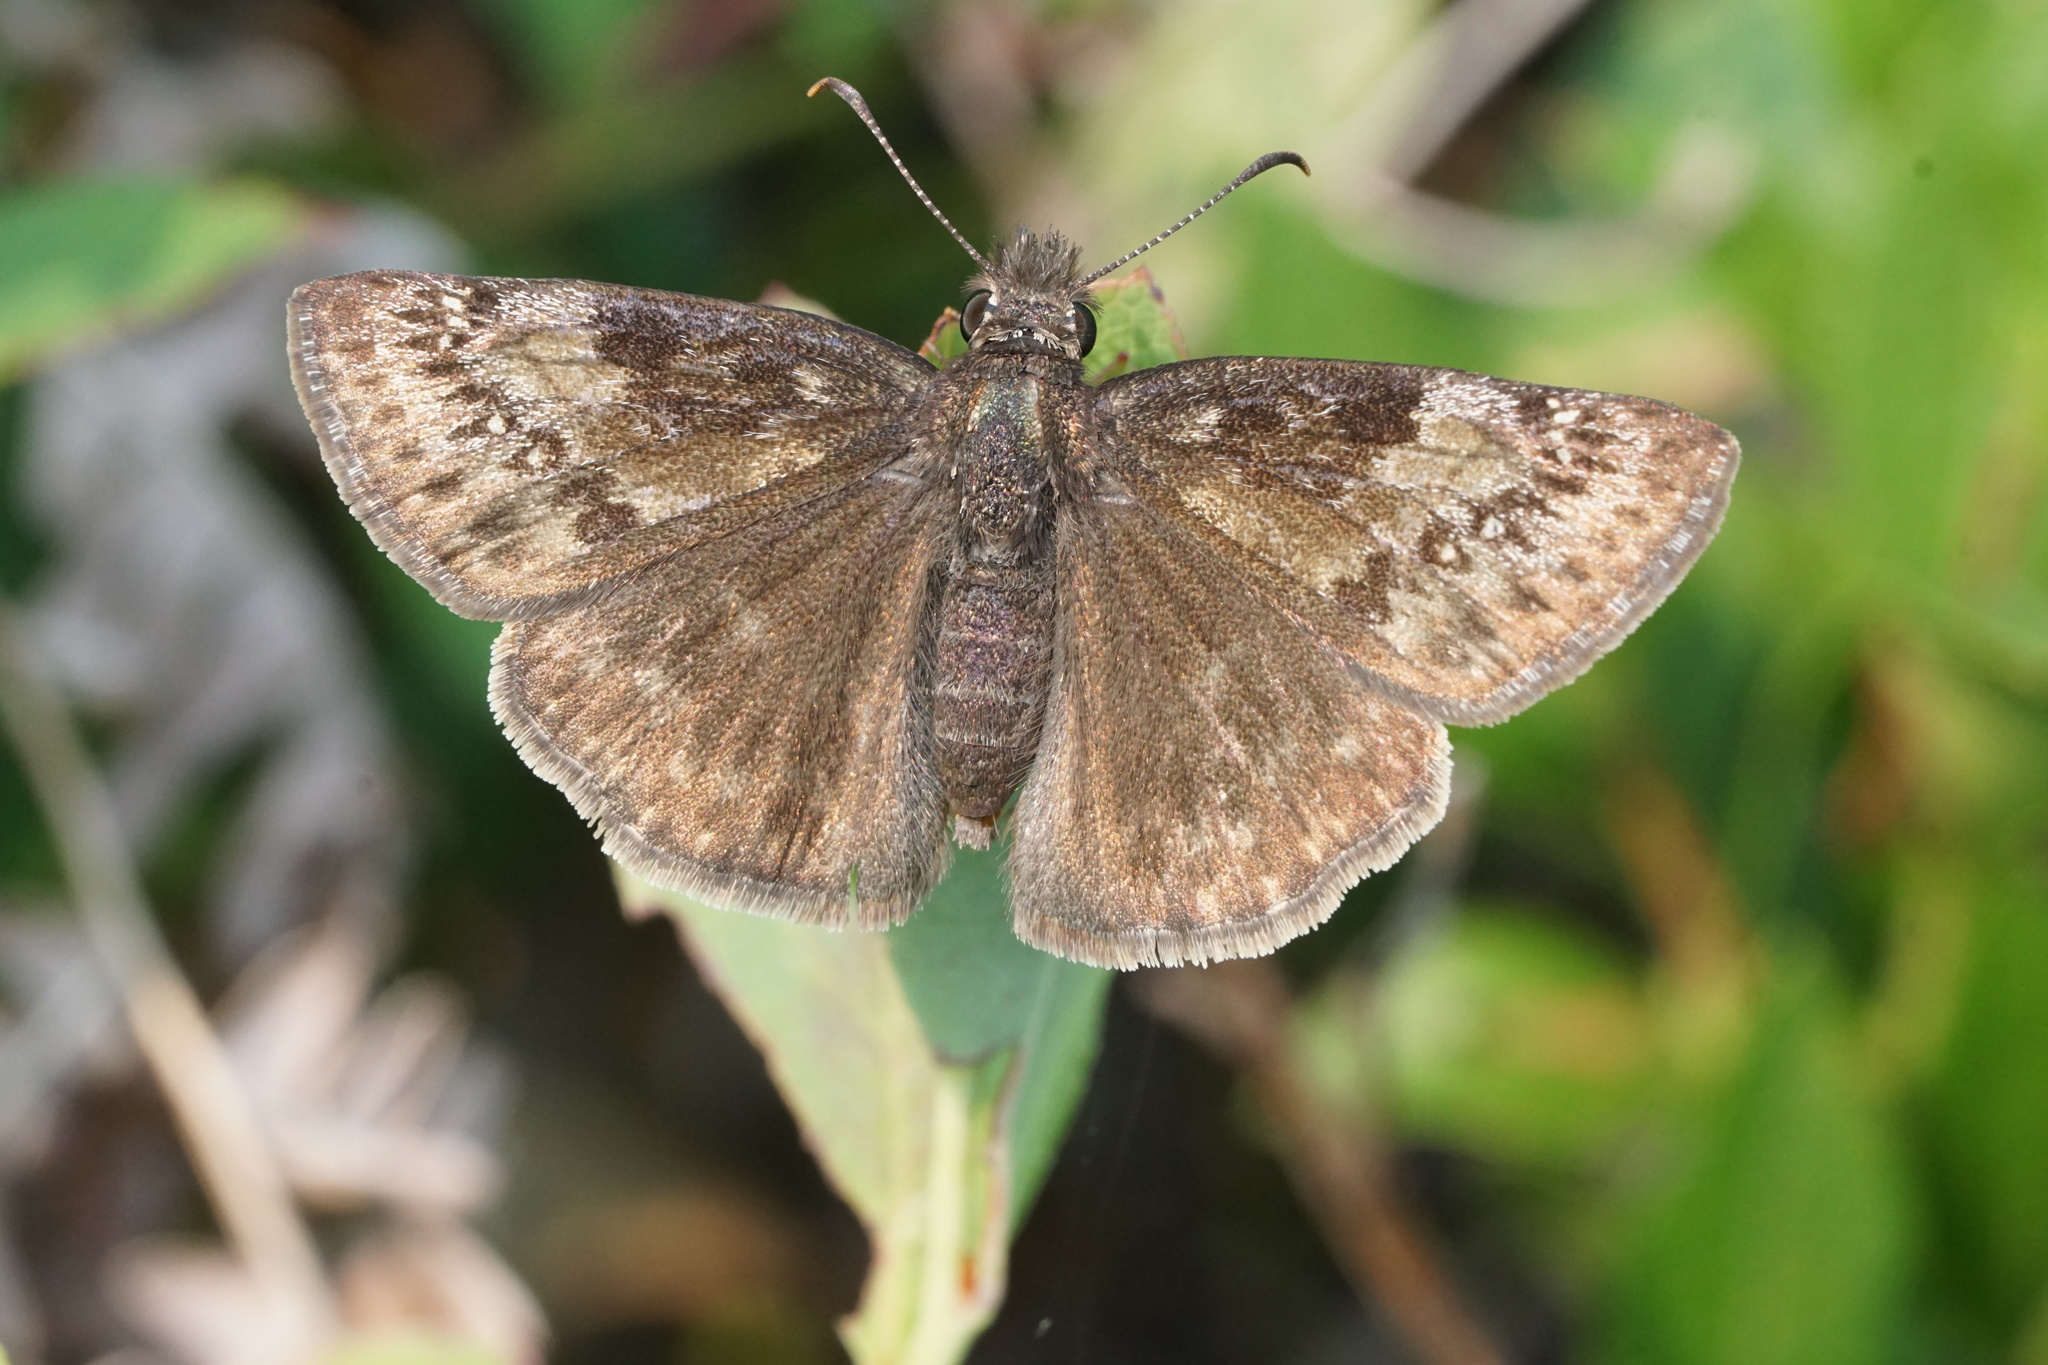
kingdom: Animalia
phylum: Arthropoda
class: Insecta
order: Lepidoptera
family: Hesperiidae
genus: Erynnis
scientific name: Erynnis baptisiae
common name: Wild indigo duskywing
